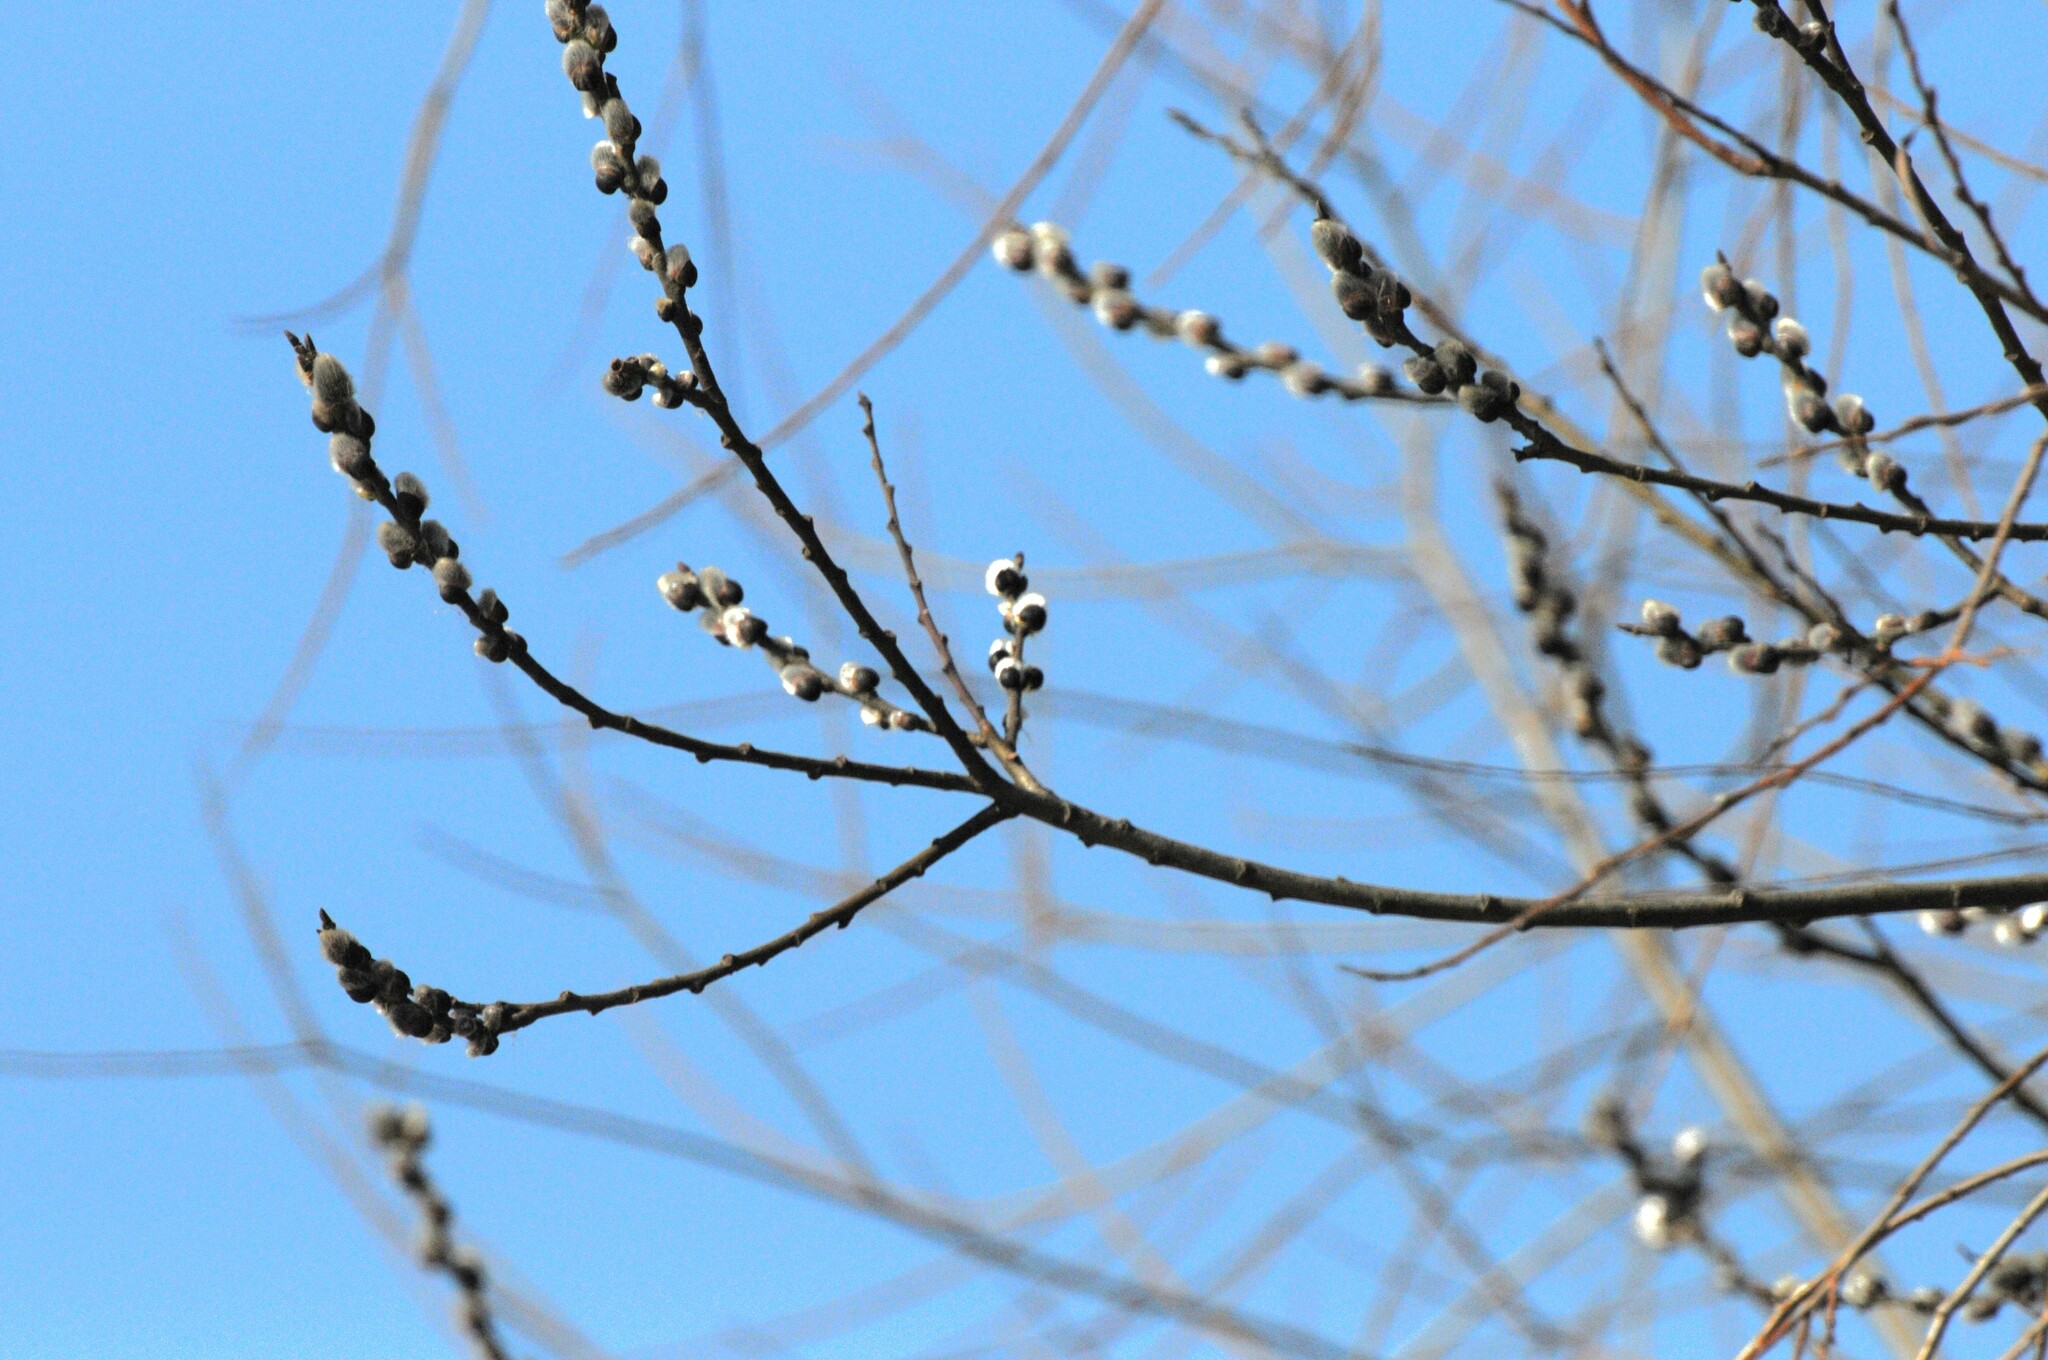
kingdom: Plantae
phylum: Tracheophyta
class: Magnoliopsida
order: Malpighiales
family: Salicaceae
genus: Salix
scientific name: Salix caprea
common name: Goat willow
